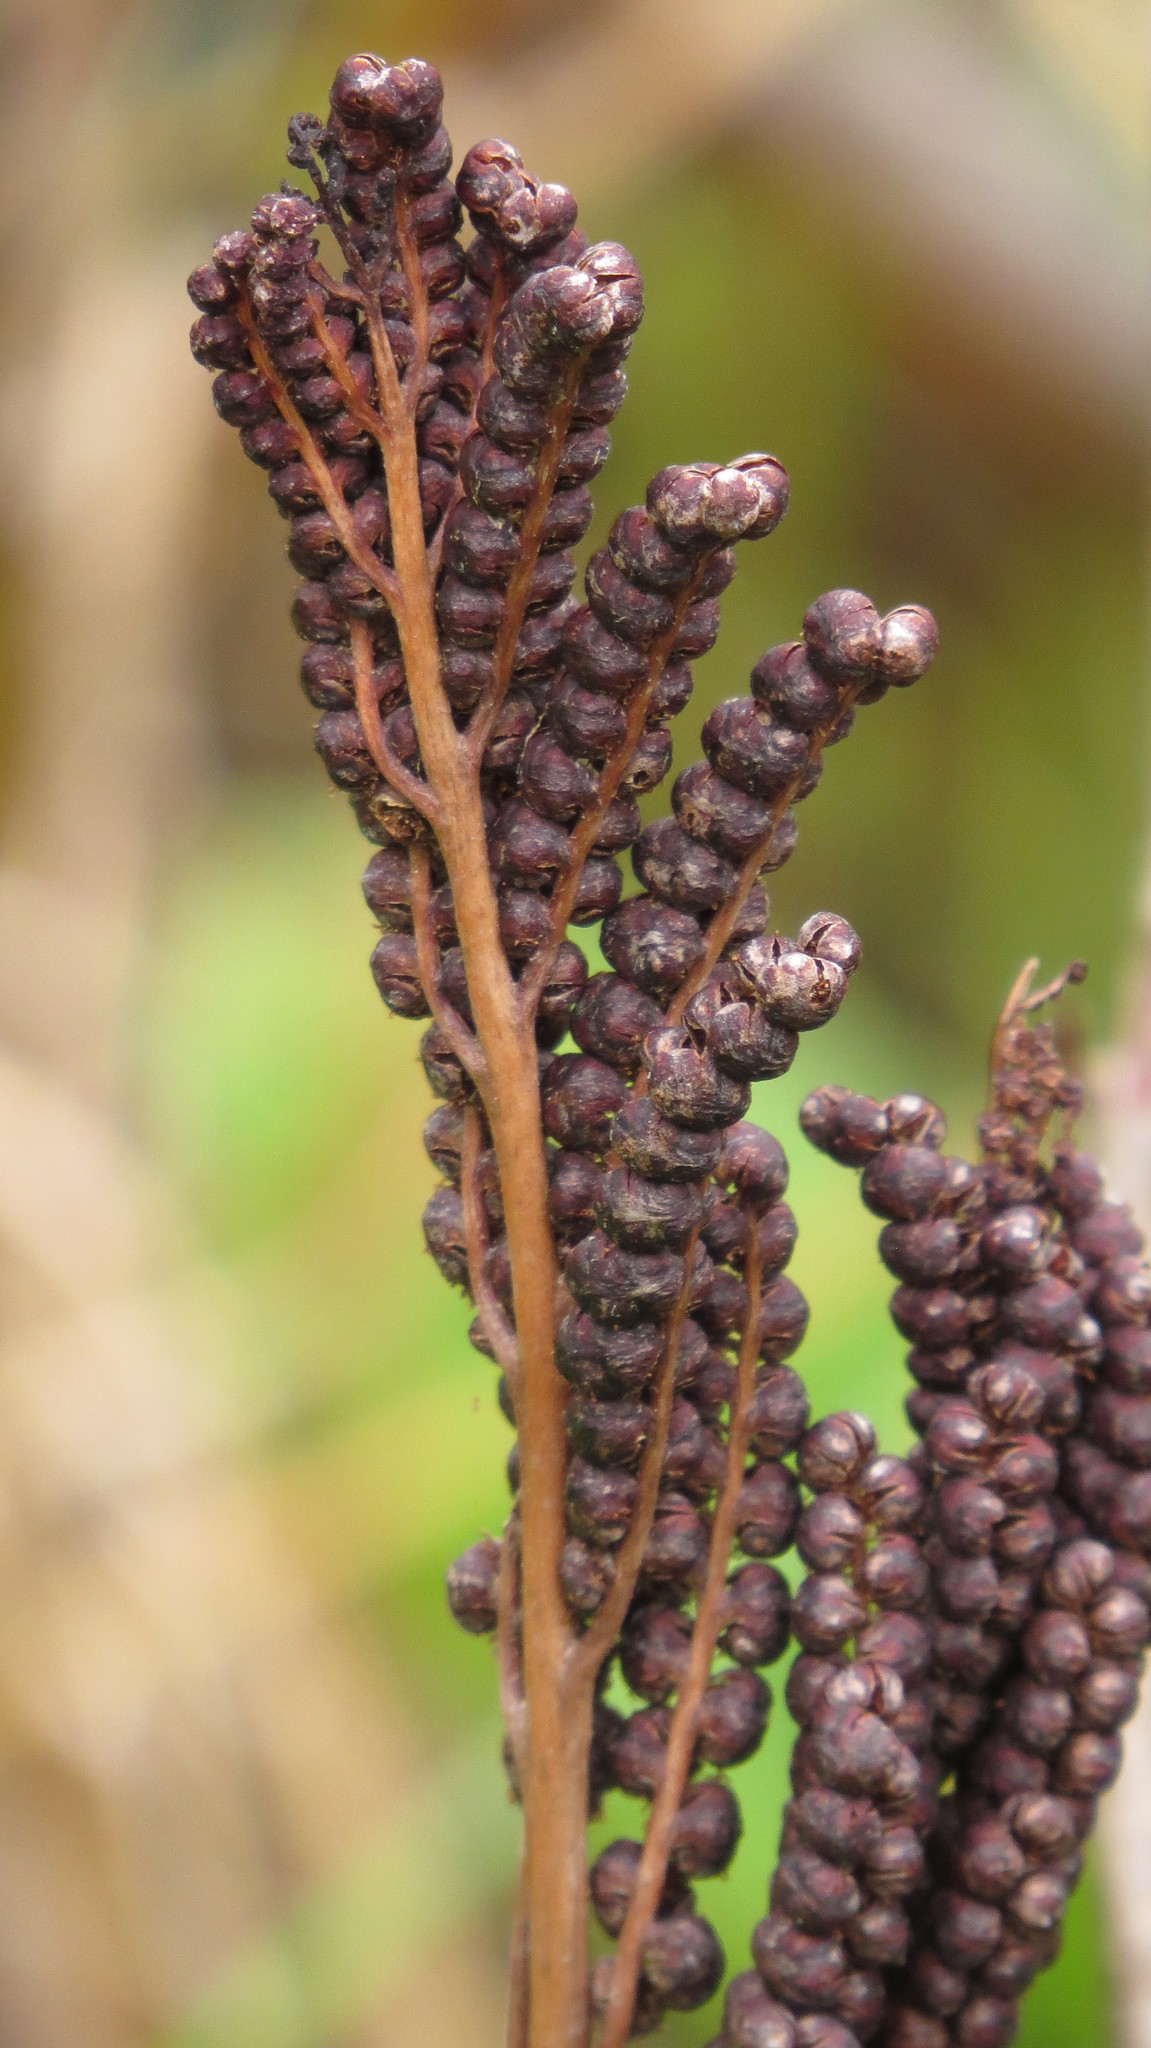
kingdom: Plantae
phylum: Tracheophyta
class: Polypodiopsida
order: Polypodiales
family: Onocleaceae
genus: Onoclea
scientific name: Onoclea sensibilis
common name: Sensitive fern
